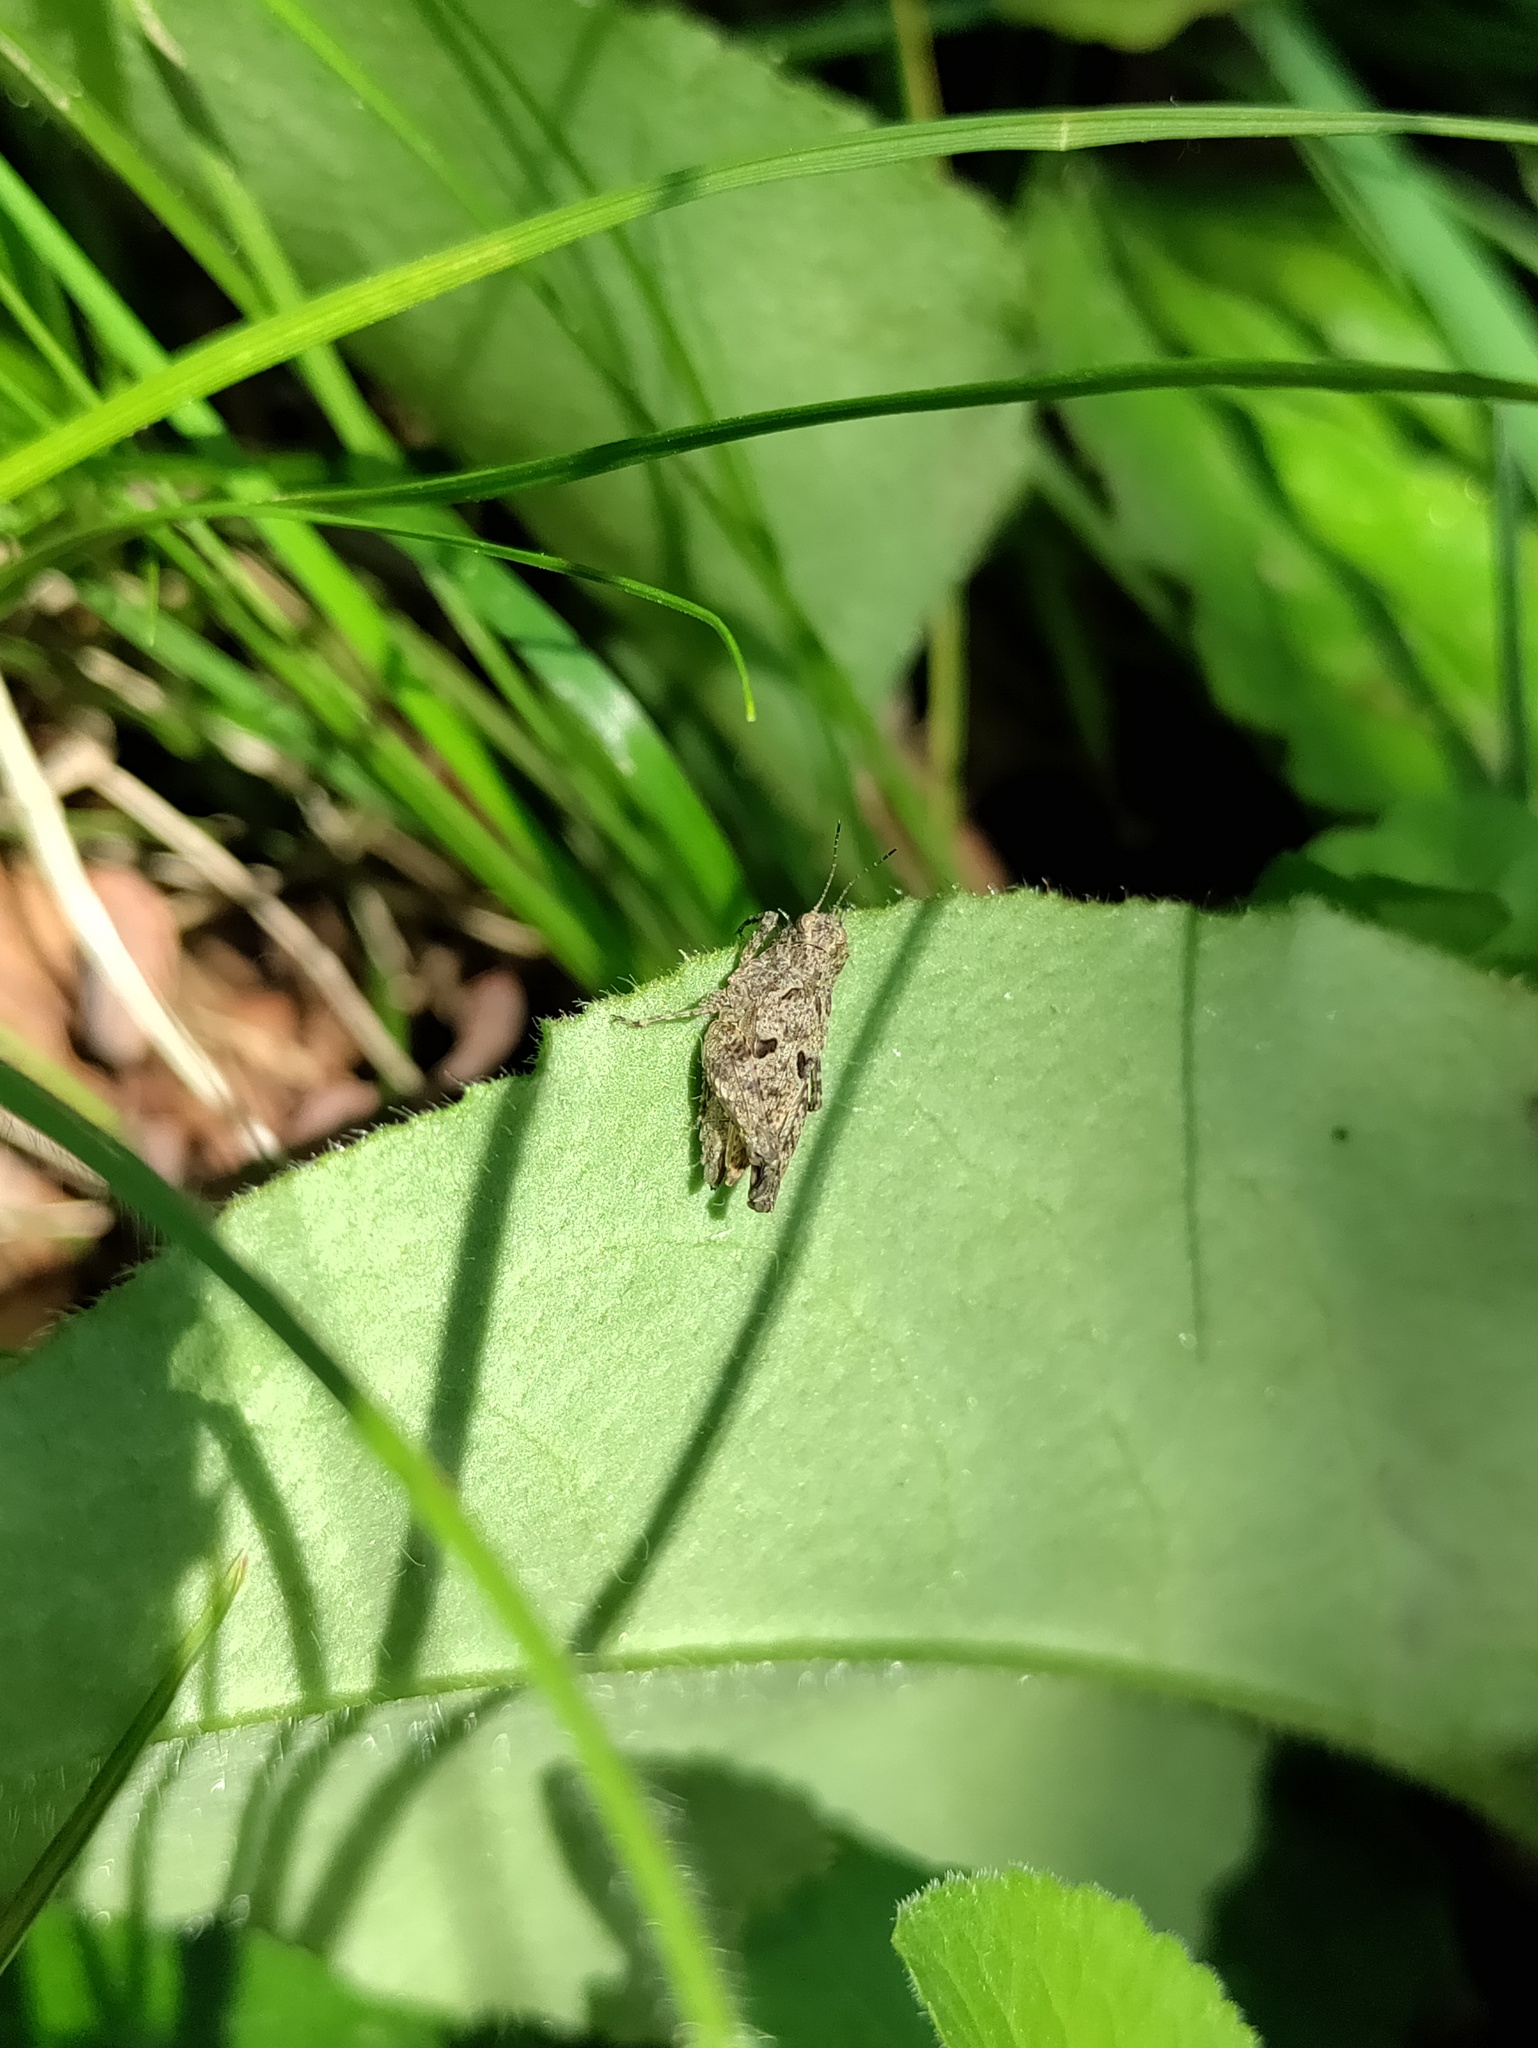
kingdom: Animalia
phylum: Arthropoda
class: Insecta
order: Orthoptera
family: Tetrigidae
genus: Tetrix
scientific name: Tetrix tenuicornis
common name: Long-horned groundhopper
